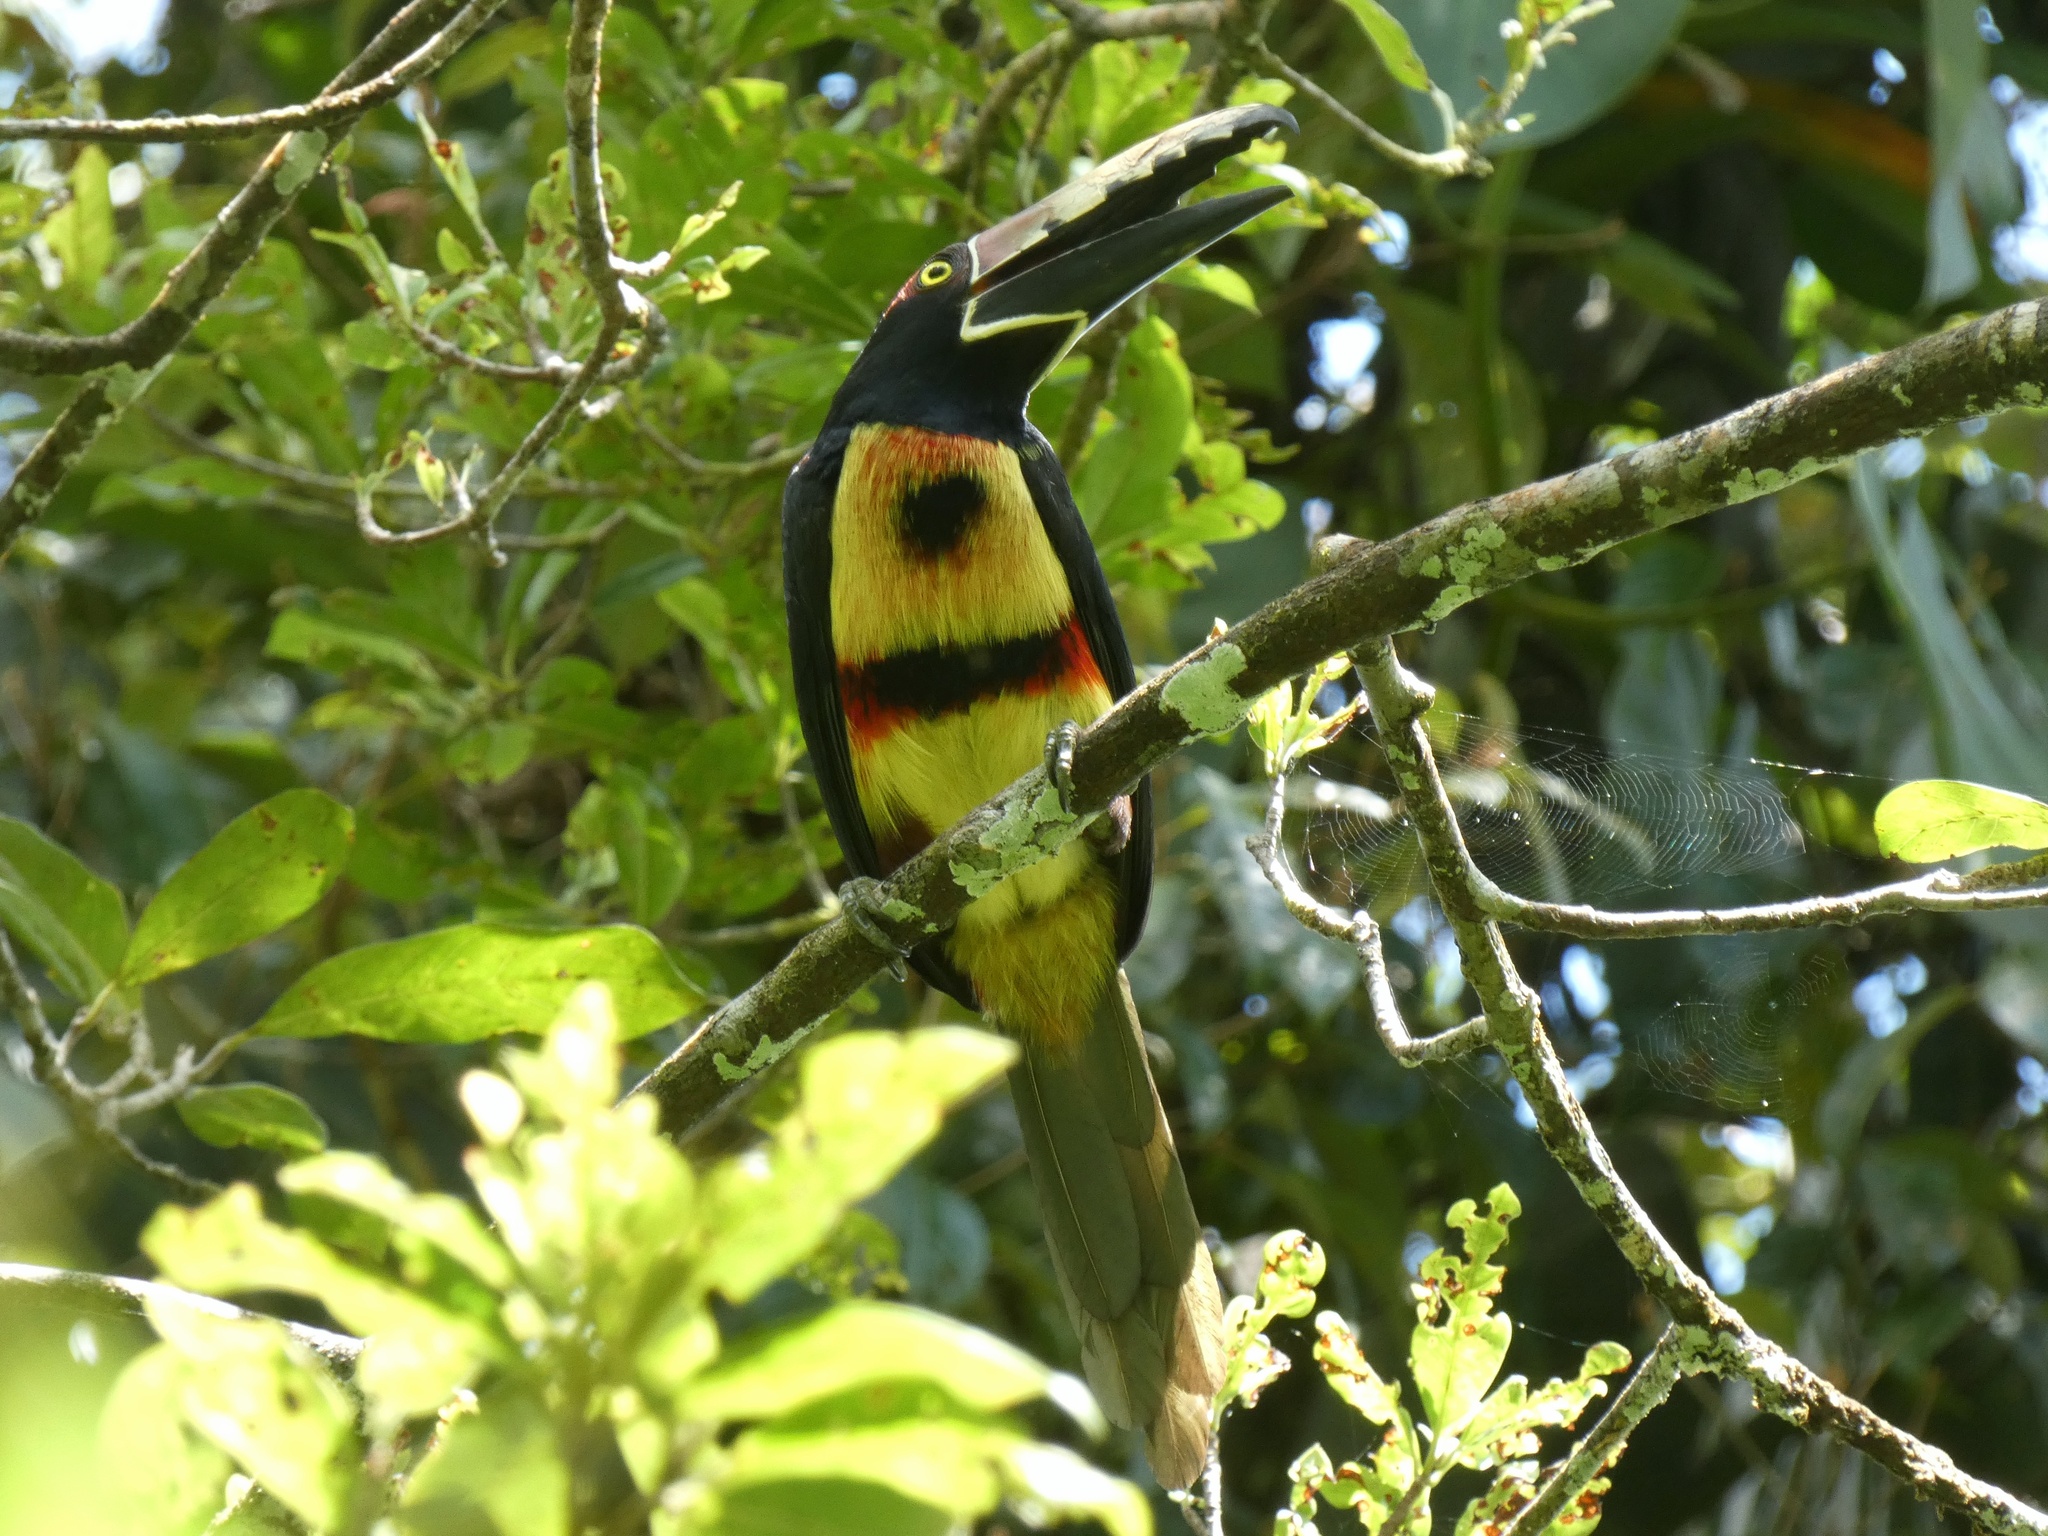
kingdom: Animalia
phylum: Chordata
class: Aves
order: Piciformes
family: Ramphastidae
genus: Pteroglossus
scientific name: Pteroglossus torquatus
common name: Collared aracari
